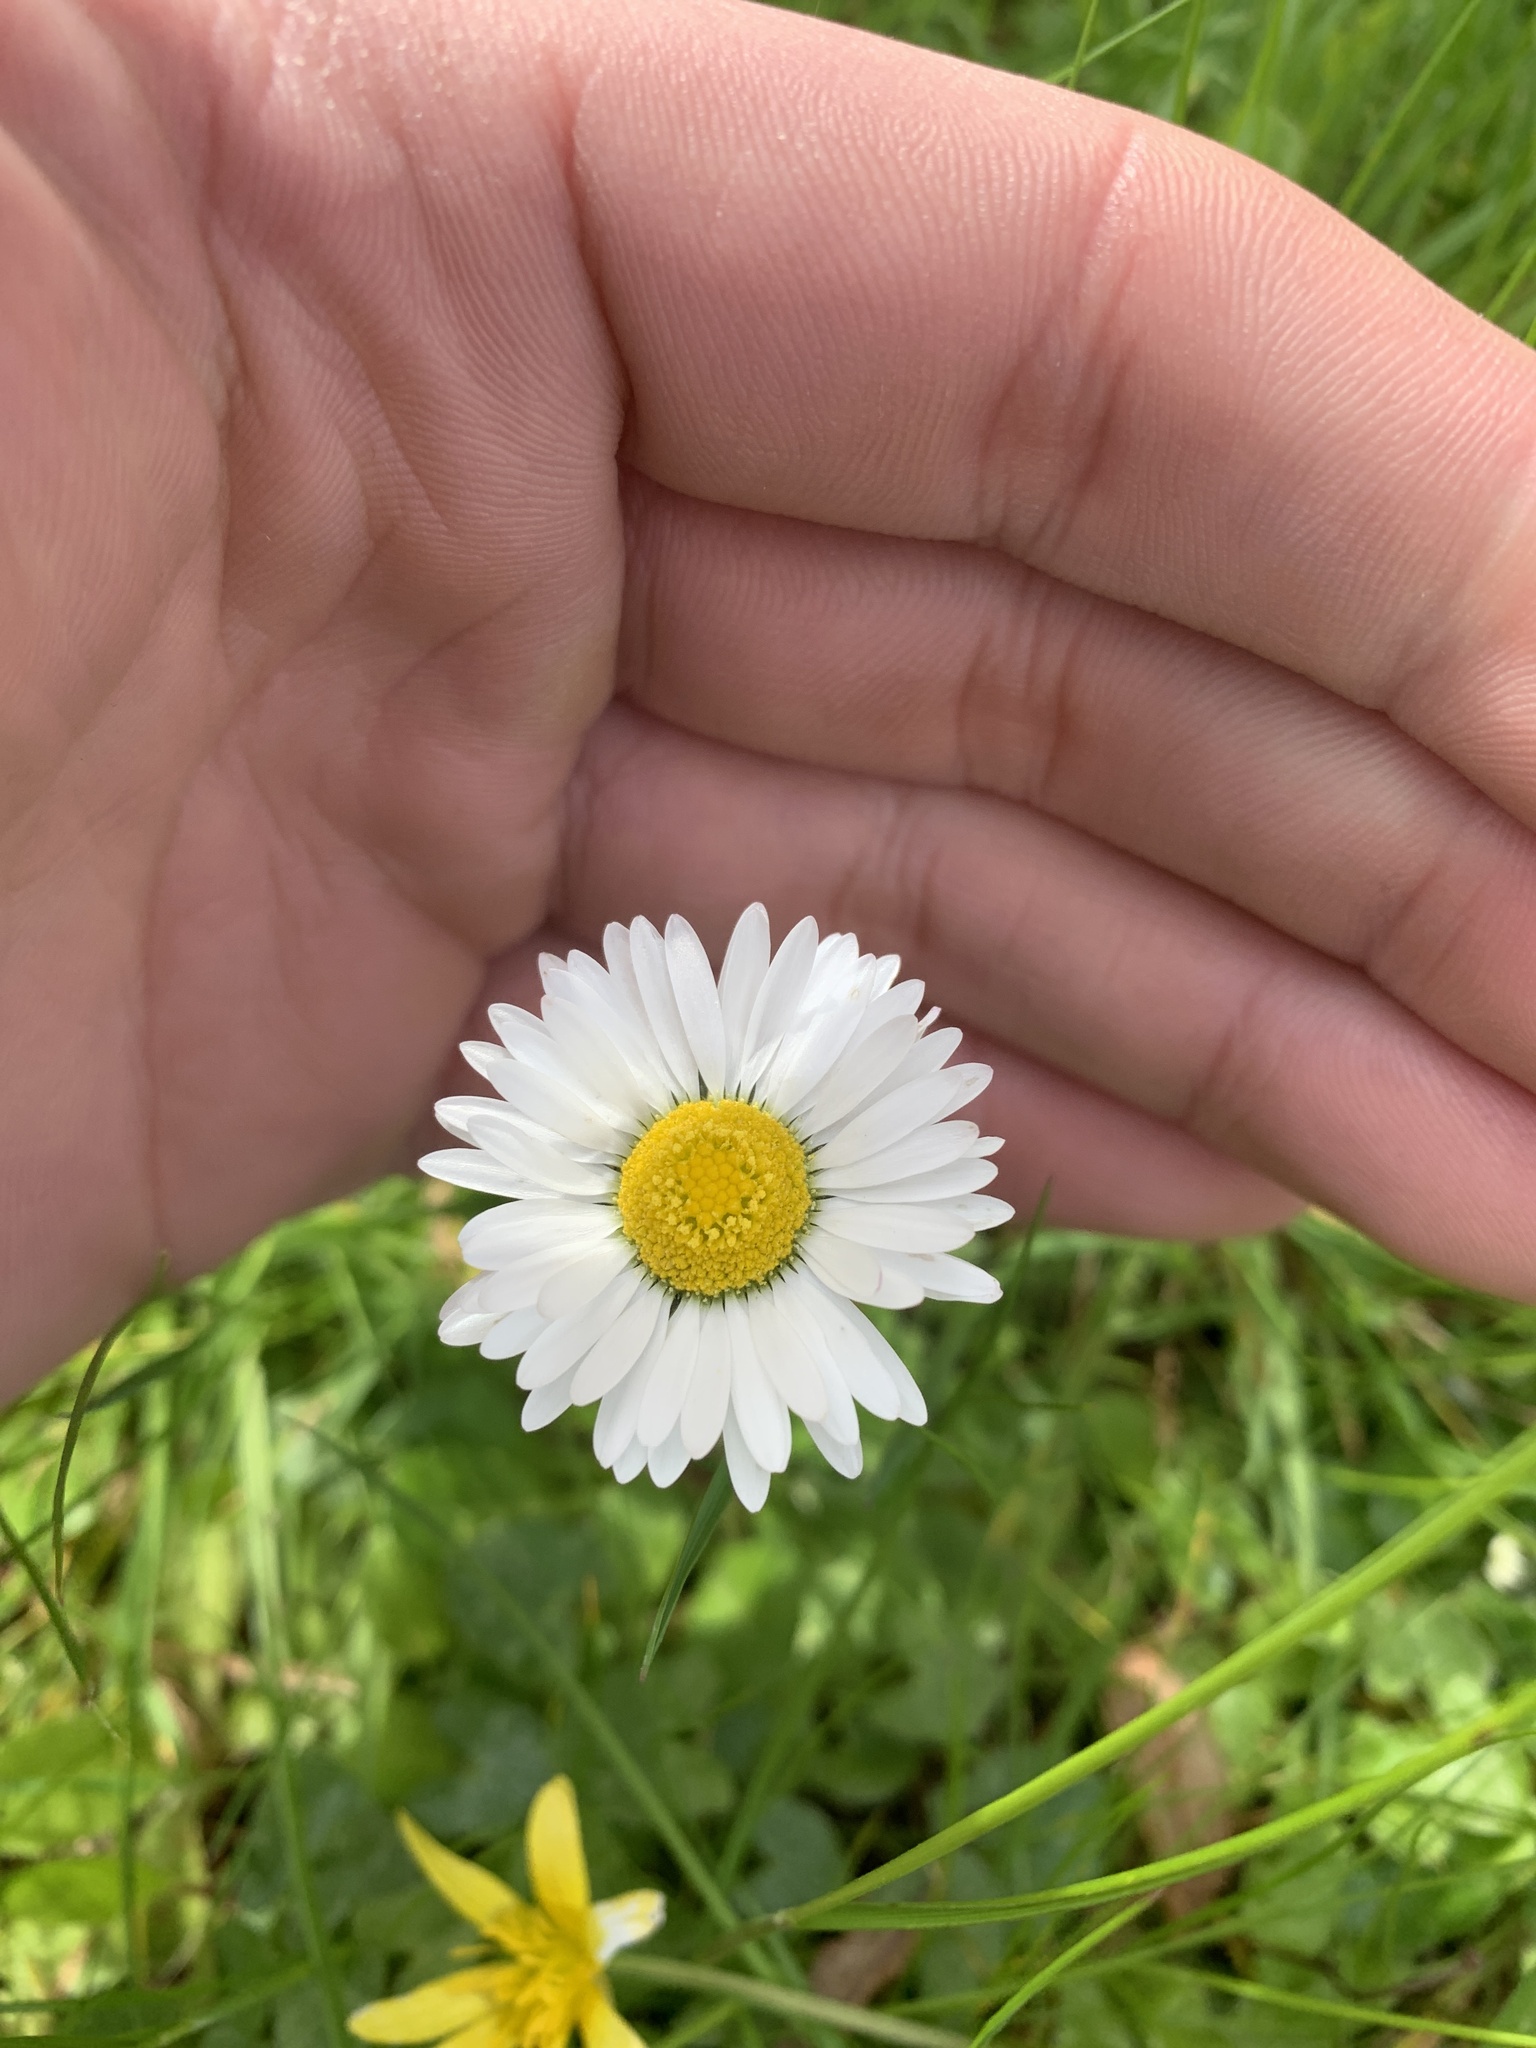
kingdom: Plantae
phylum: Tracheophyta
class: Magnoliopsida
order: Asterales
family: Asteraceae
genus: Bellis
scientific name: Bellis perennis
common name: Lawndaisy
